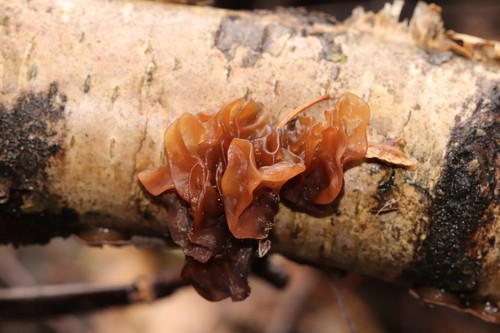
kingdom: Fungi
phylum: Basidiomycota
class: Tremellomycetes
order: Tremellales
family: Tremellaceae
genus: Phaeotremella
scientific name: Phaeotremella
